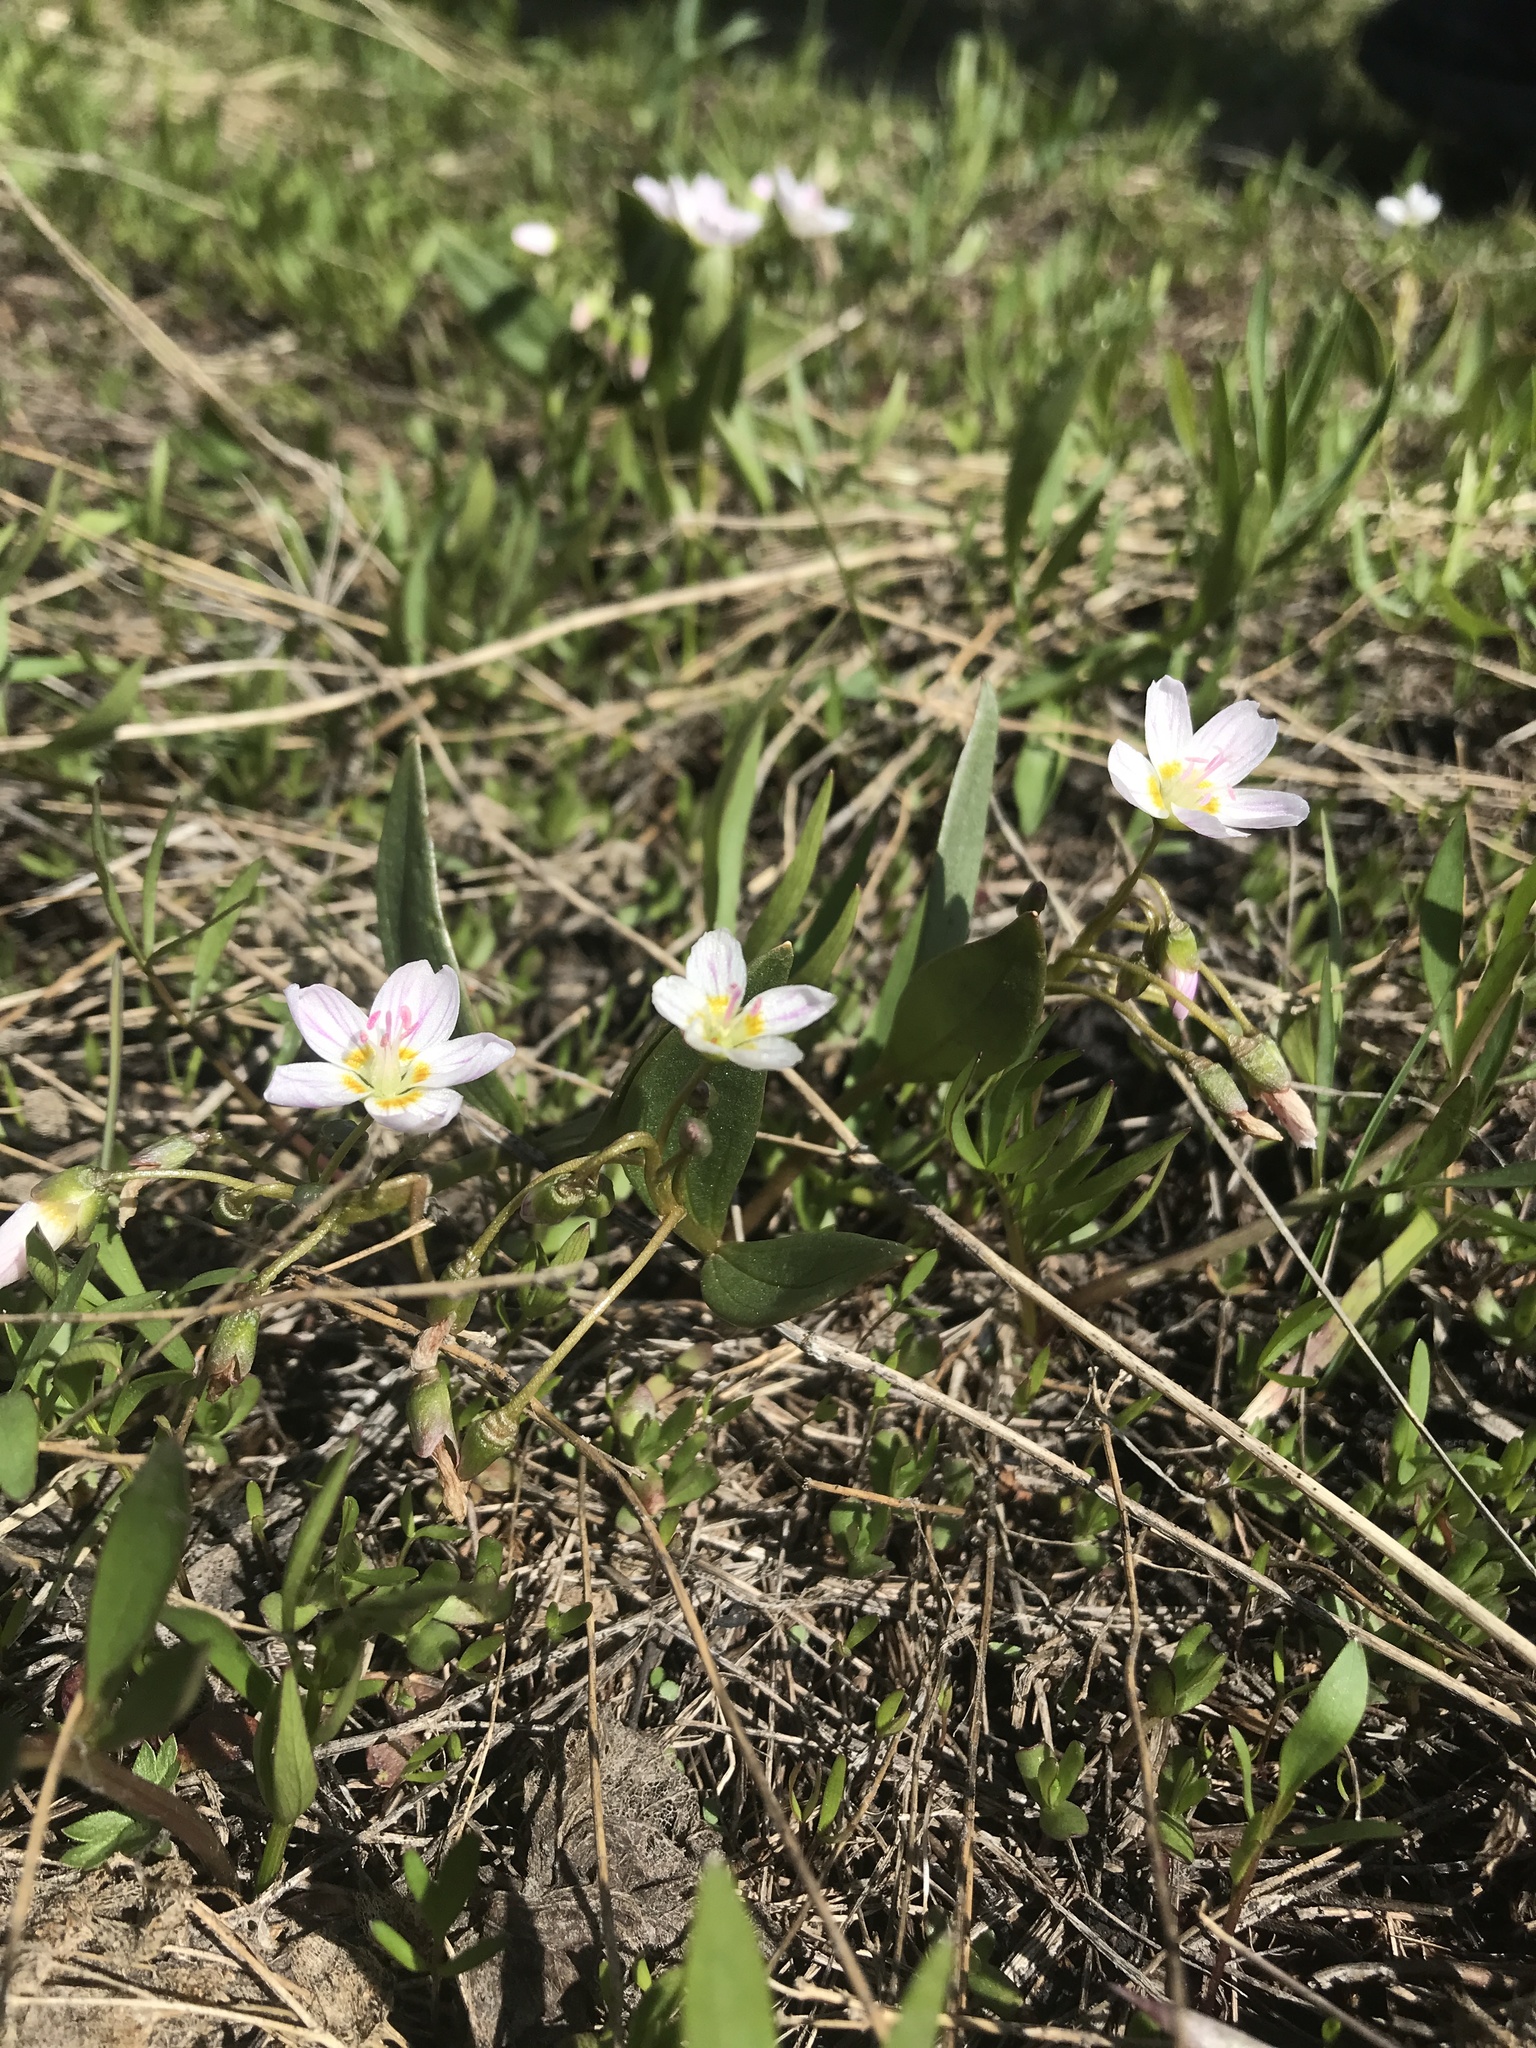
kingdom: Plantae
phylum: Tracheophyta
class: Magnoliopsida
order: Caryophyllales
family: Montiaceae
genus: Claytonia
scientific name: Claytonia lanceolata
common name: Western spring-beauty
